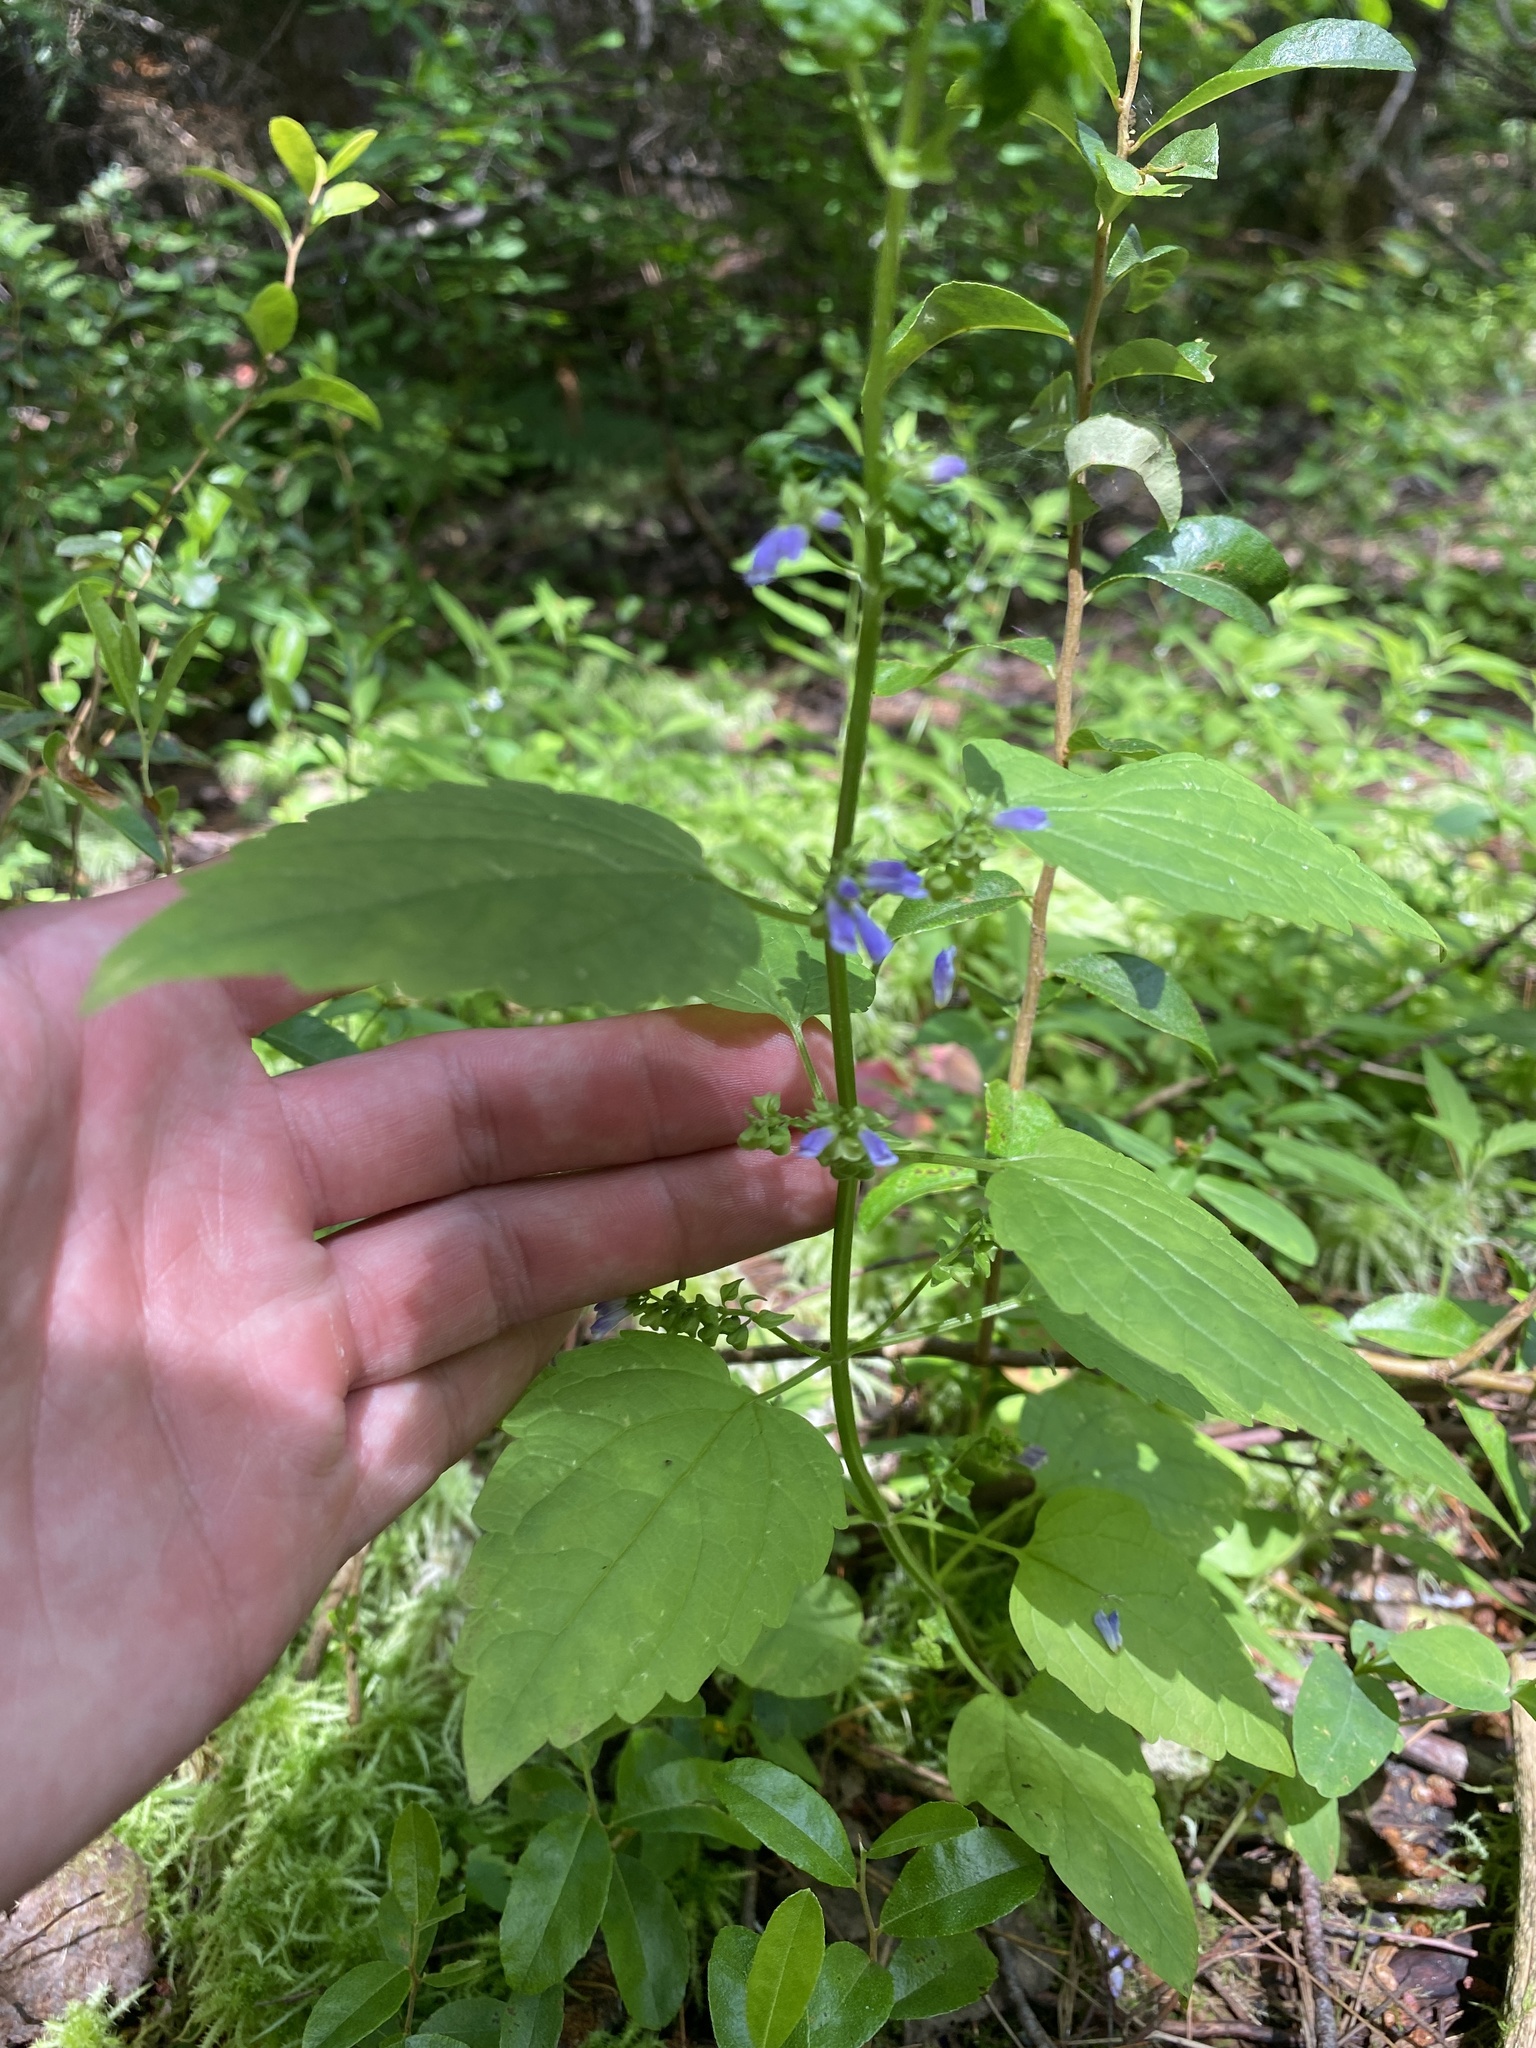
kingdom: Plantae
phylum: Tracheophyta
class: Magnoliopsida
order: Lamiales
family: Lamiaceae
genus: Scutellaria
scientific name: Scutellaria lateriflora
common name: Blue skullcap
